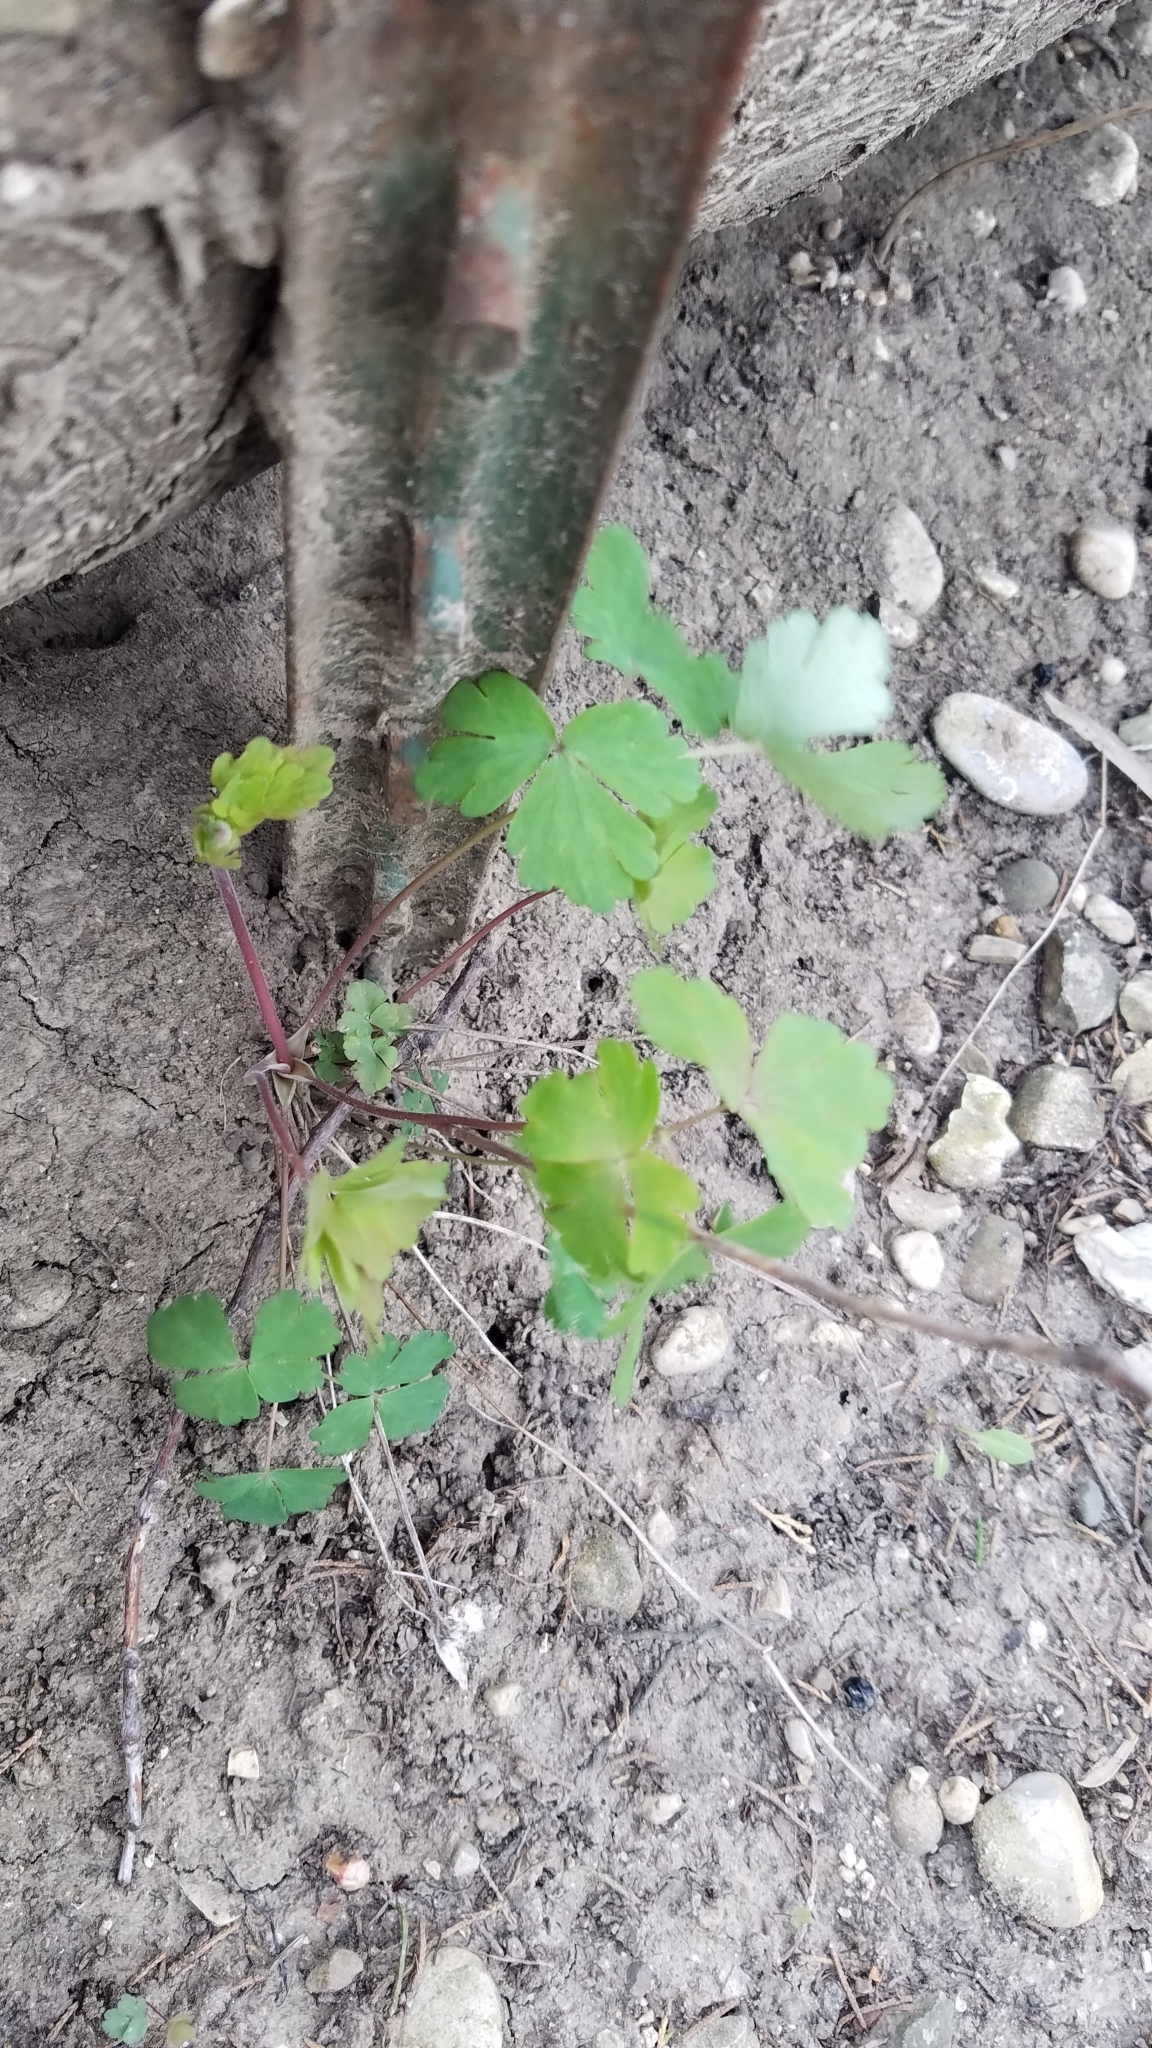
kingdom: Plantae
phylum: Tracheophyta
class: Magnoliopsida
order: Ranunculales
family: Ranunculaceae
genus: Aquilegia
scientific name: Aquilegia canadensis
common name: American columbine
